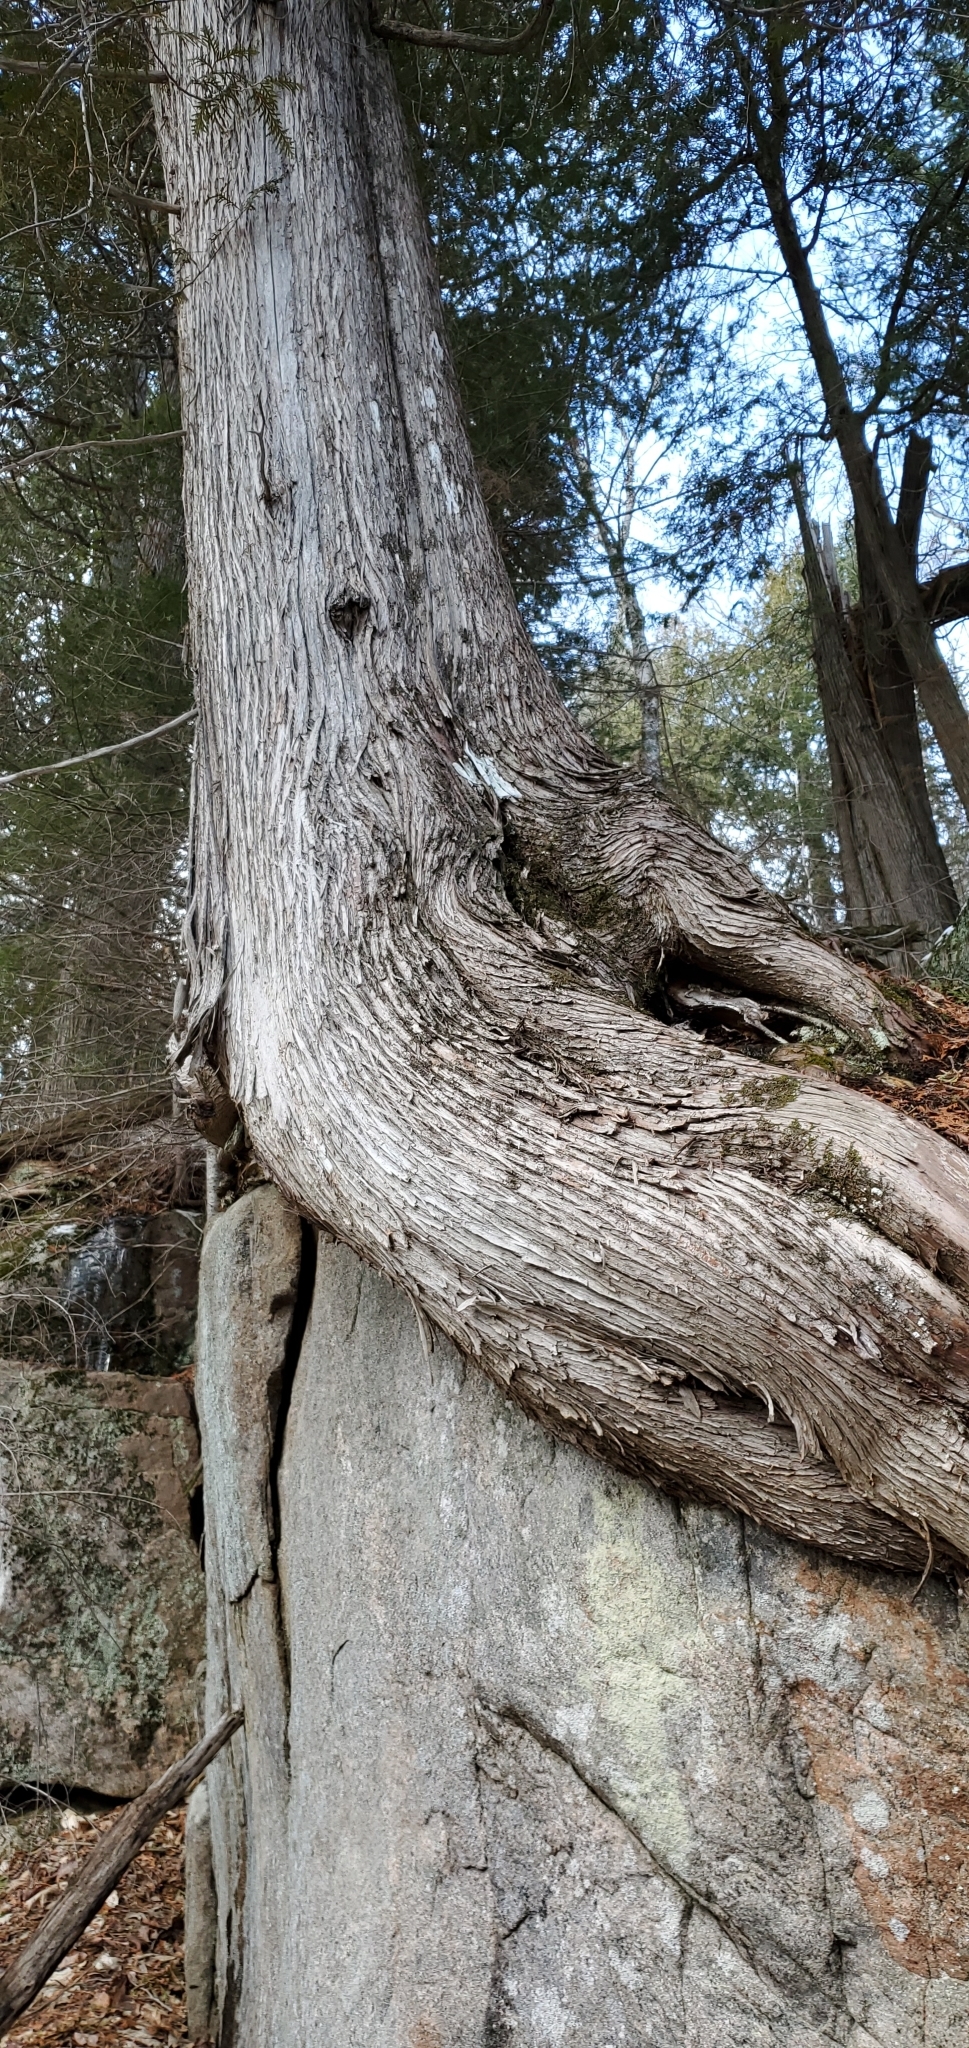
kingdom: Plantae
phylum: Tracheophyta
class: Pinopsida
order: Pinales
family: Cupressaceae
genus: Thuja
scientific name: Thuja occidentalis
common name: Northern white-cedar
